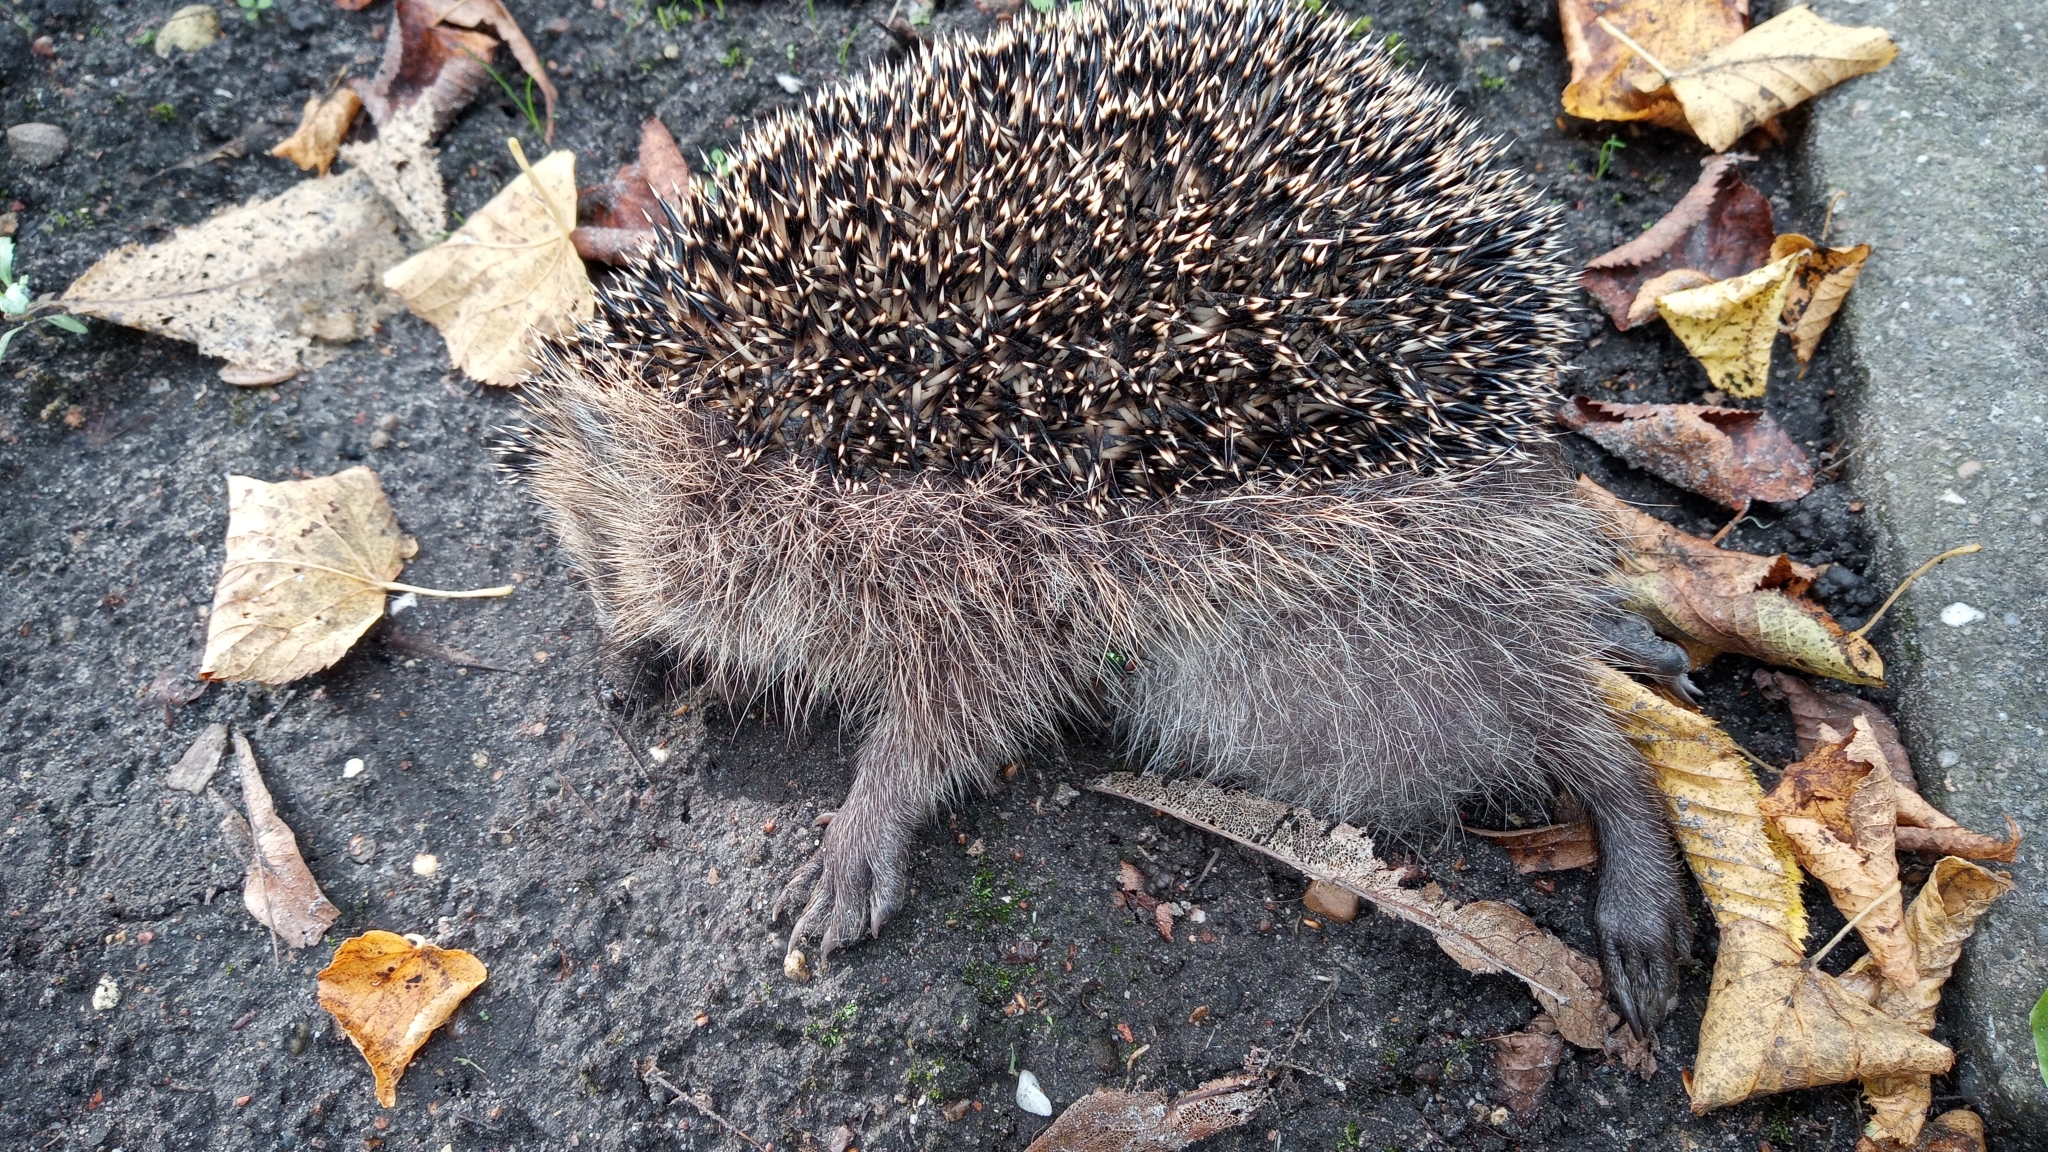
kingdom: Animalia
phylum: Chordata
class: Mammalia
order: Erinaceomorpha
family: Erinaceidae
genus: Erinaceus
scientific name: Erinaceus europaeus
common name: West european hedgehog
